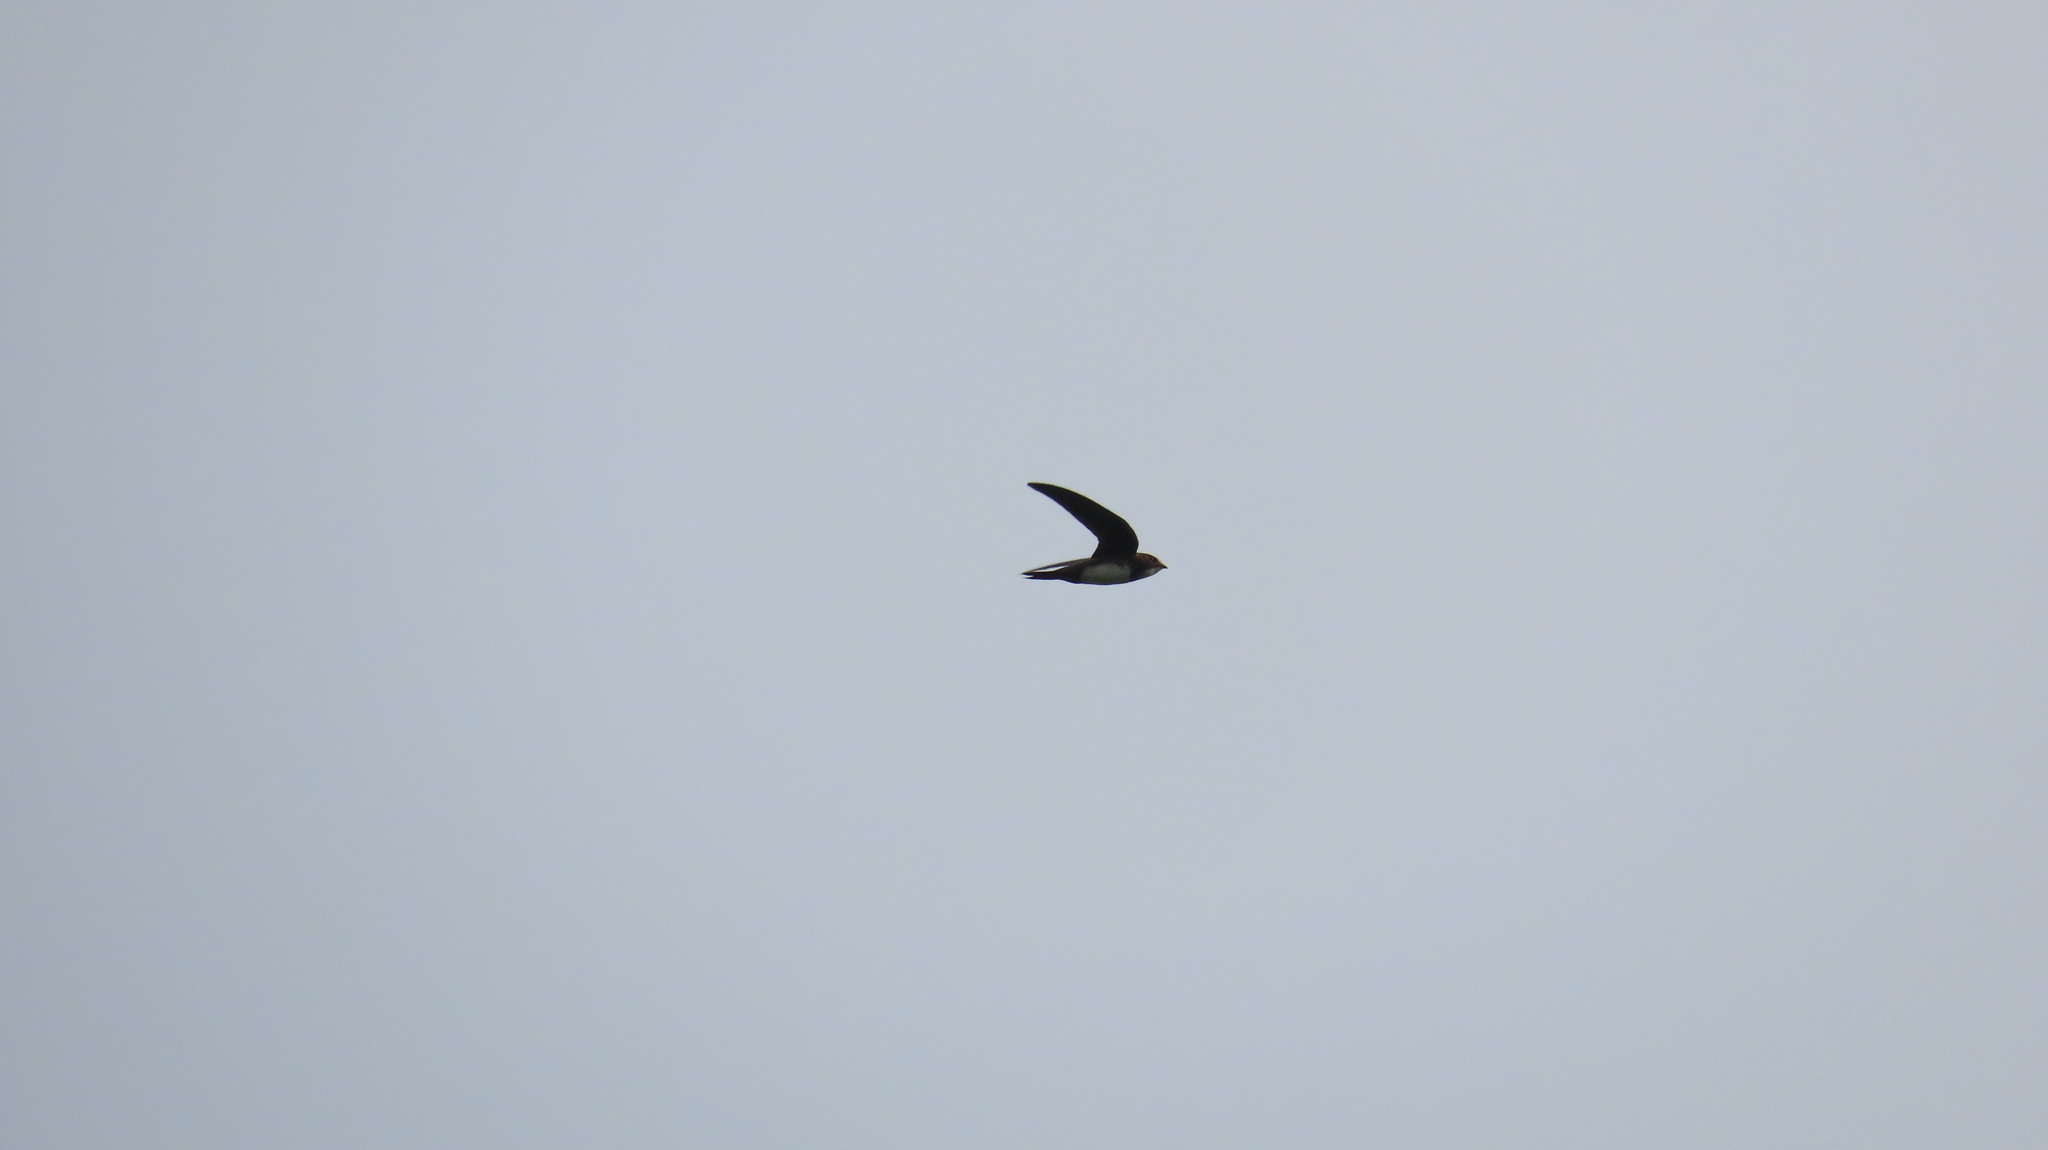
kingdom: Animalia
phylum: Chordata
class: Aves
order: Apodiformes
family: Apodidae
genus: Tachymarptis
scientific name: Tachymarptis melba
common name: Alpine swift
